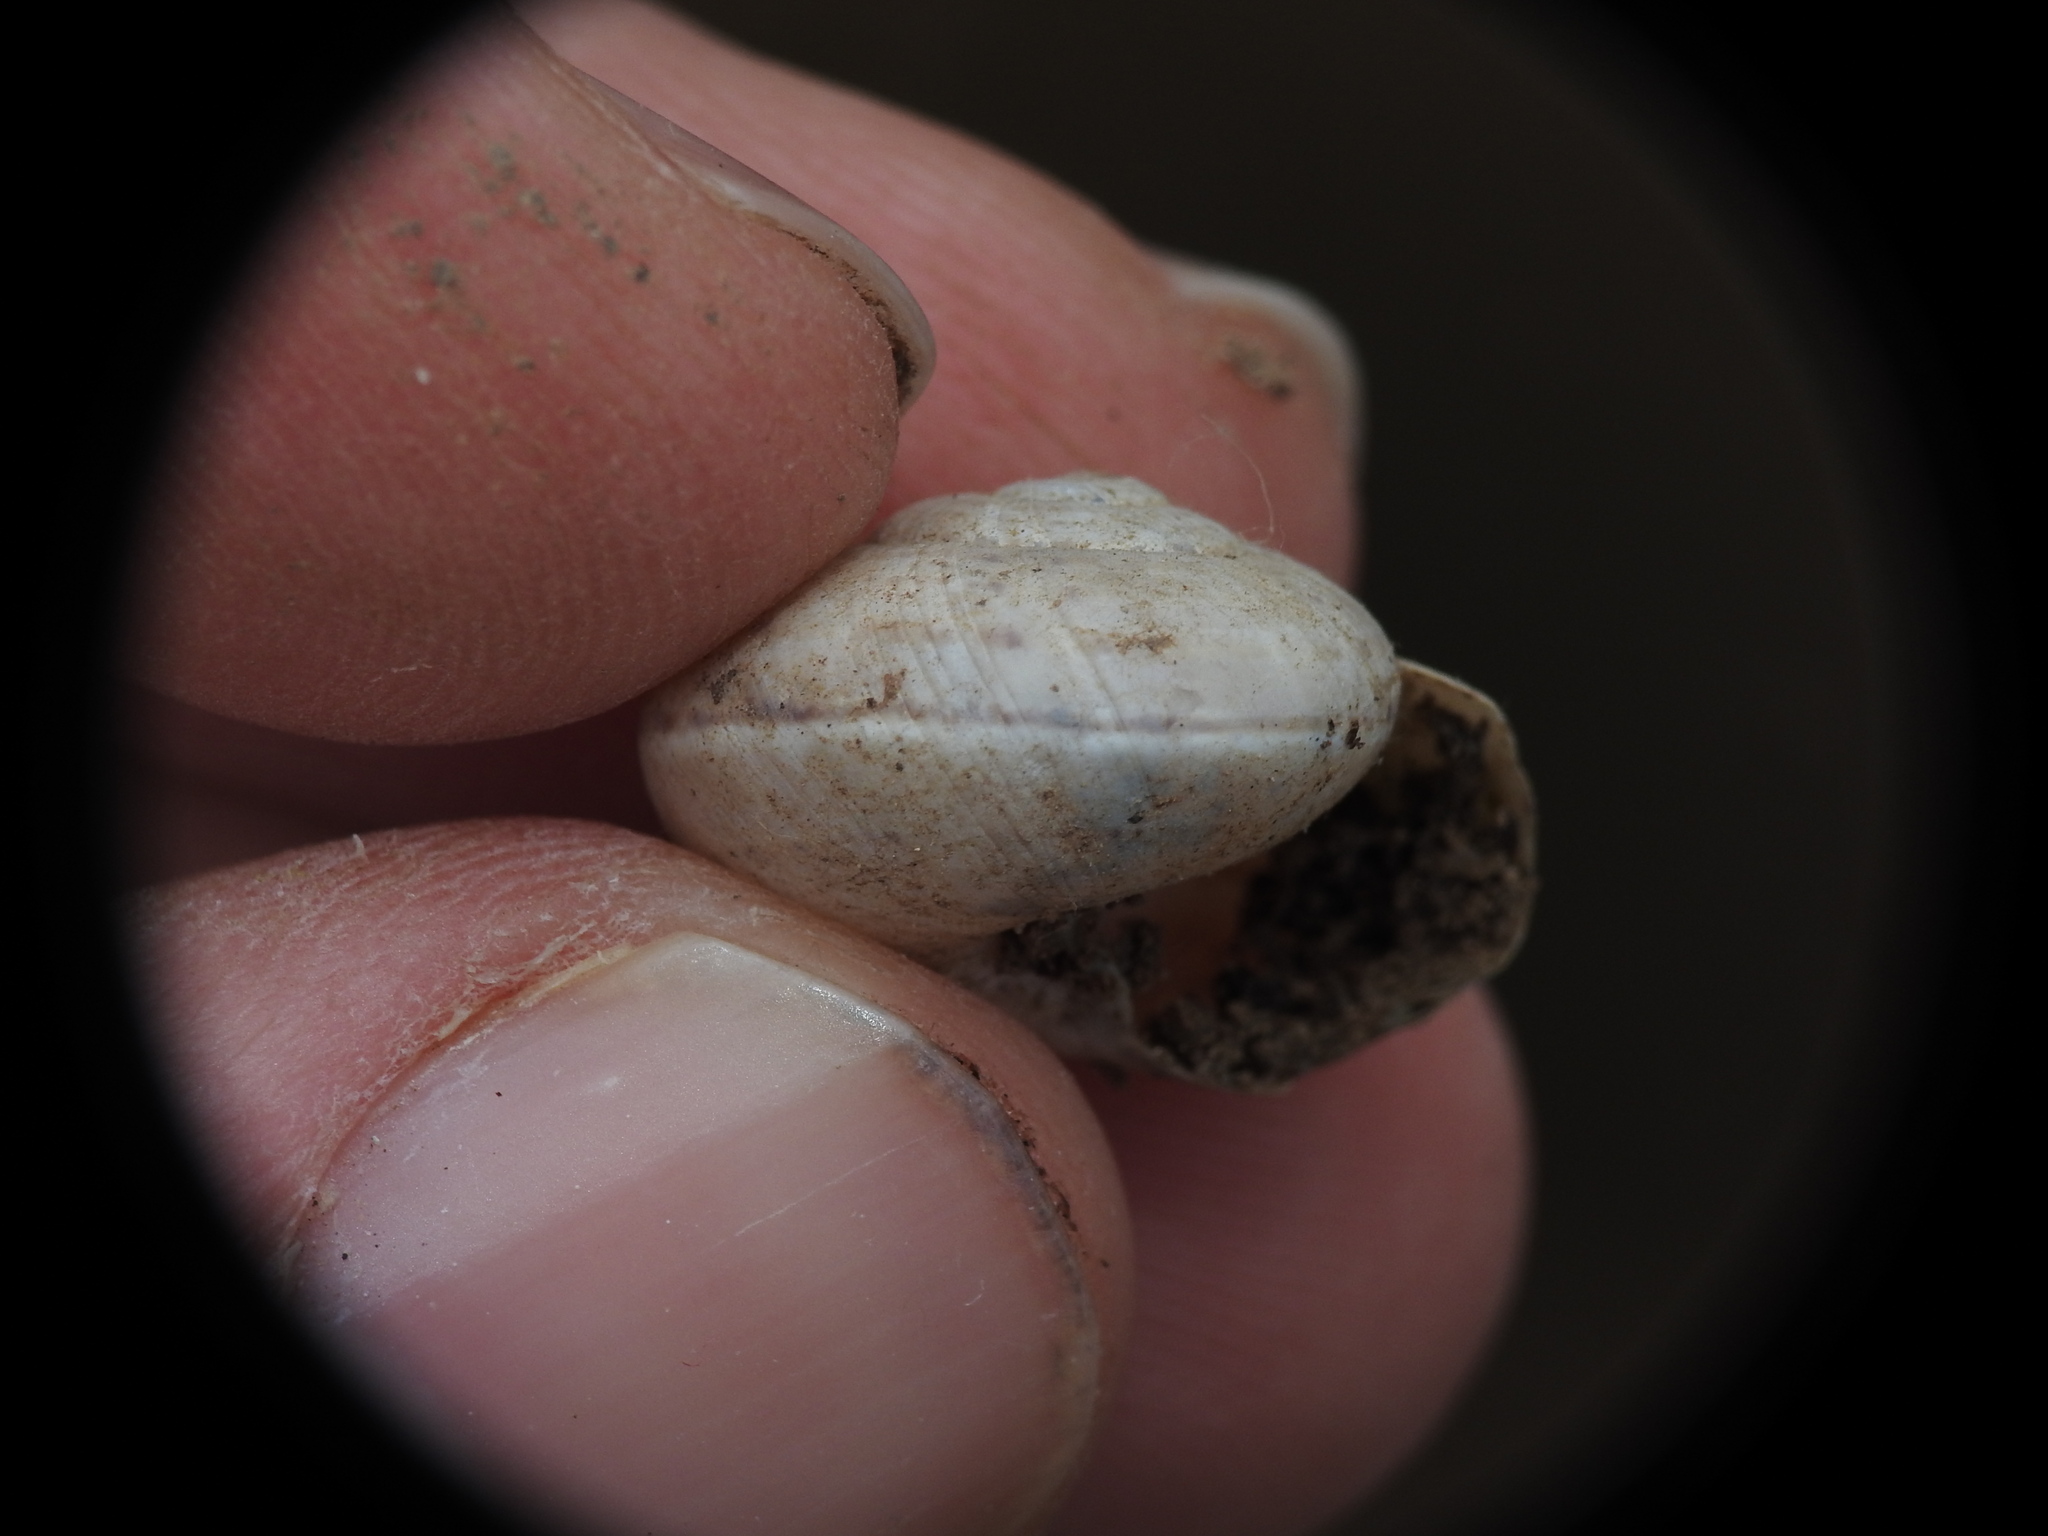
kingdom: Animalia
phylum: Mollusca
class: Gastropoda
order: Stylommatophora
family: Helicidae
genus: Pseudotachea
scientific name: Pseudotachea splendida
